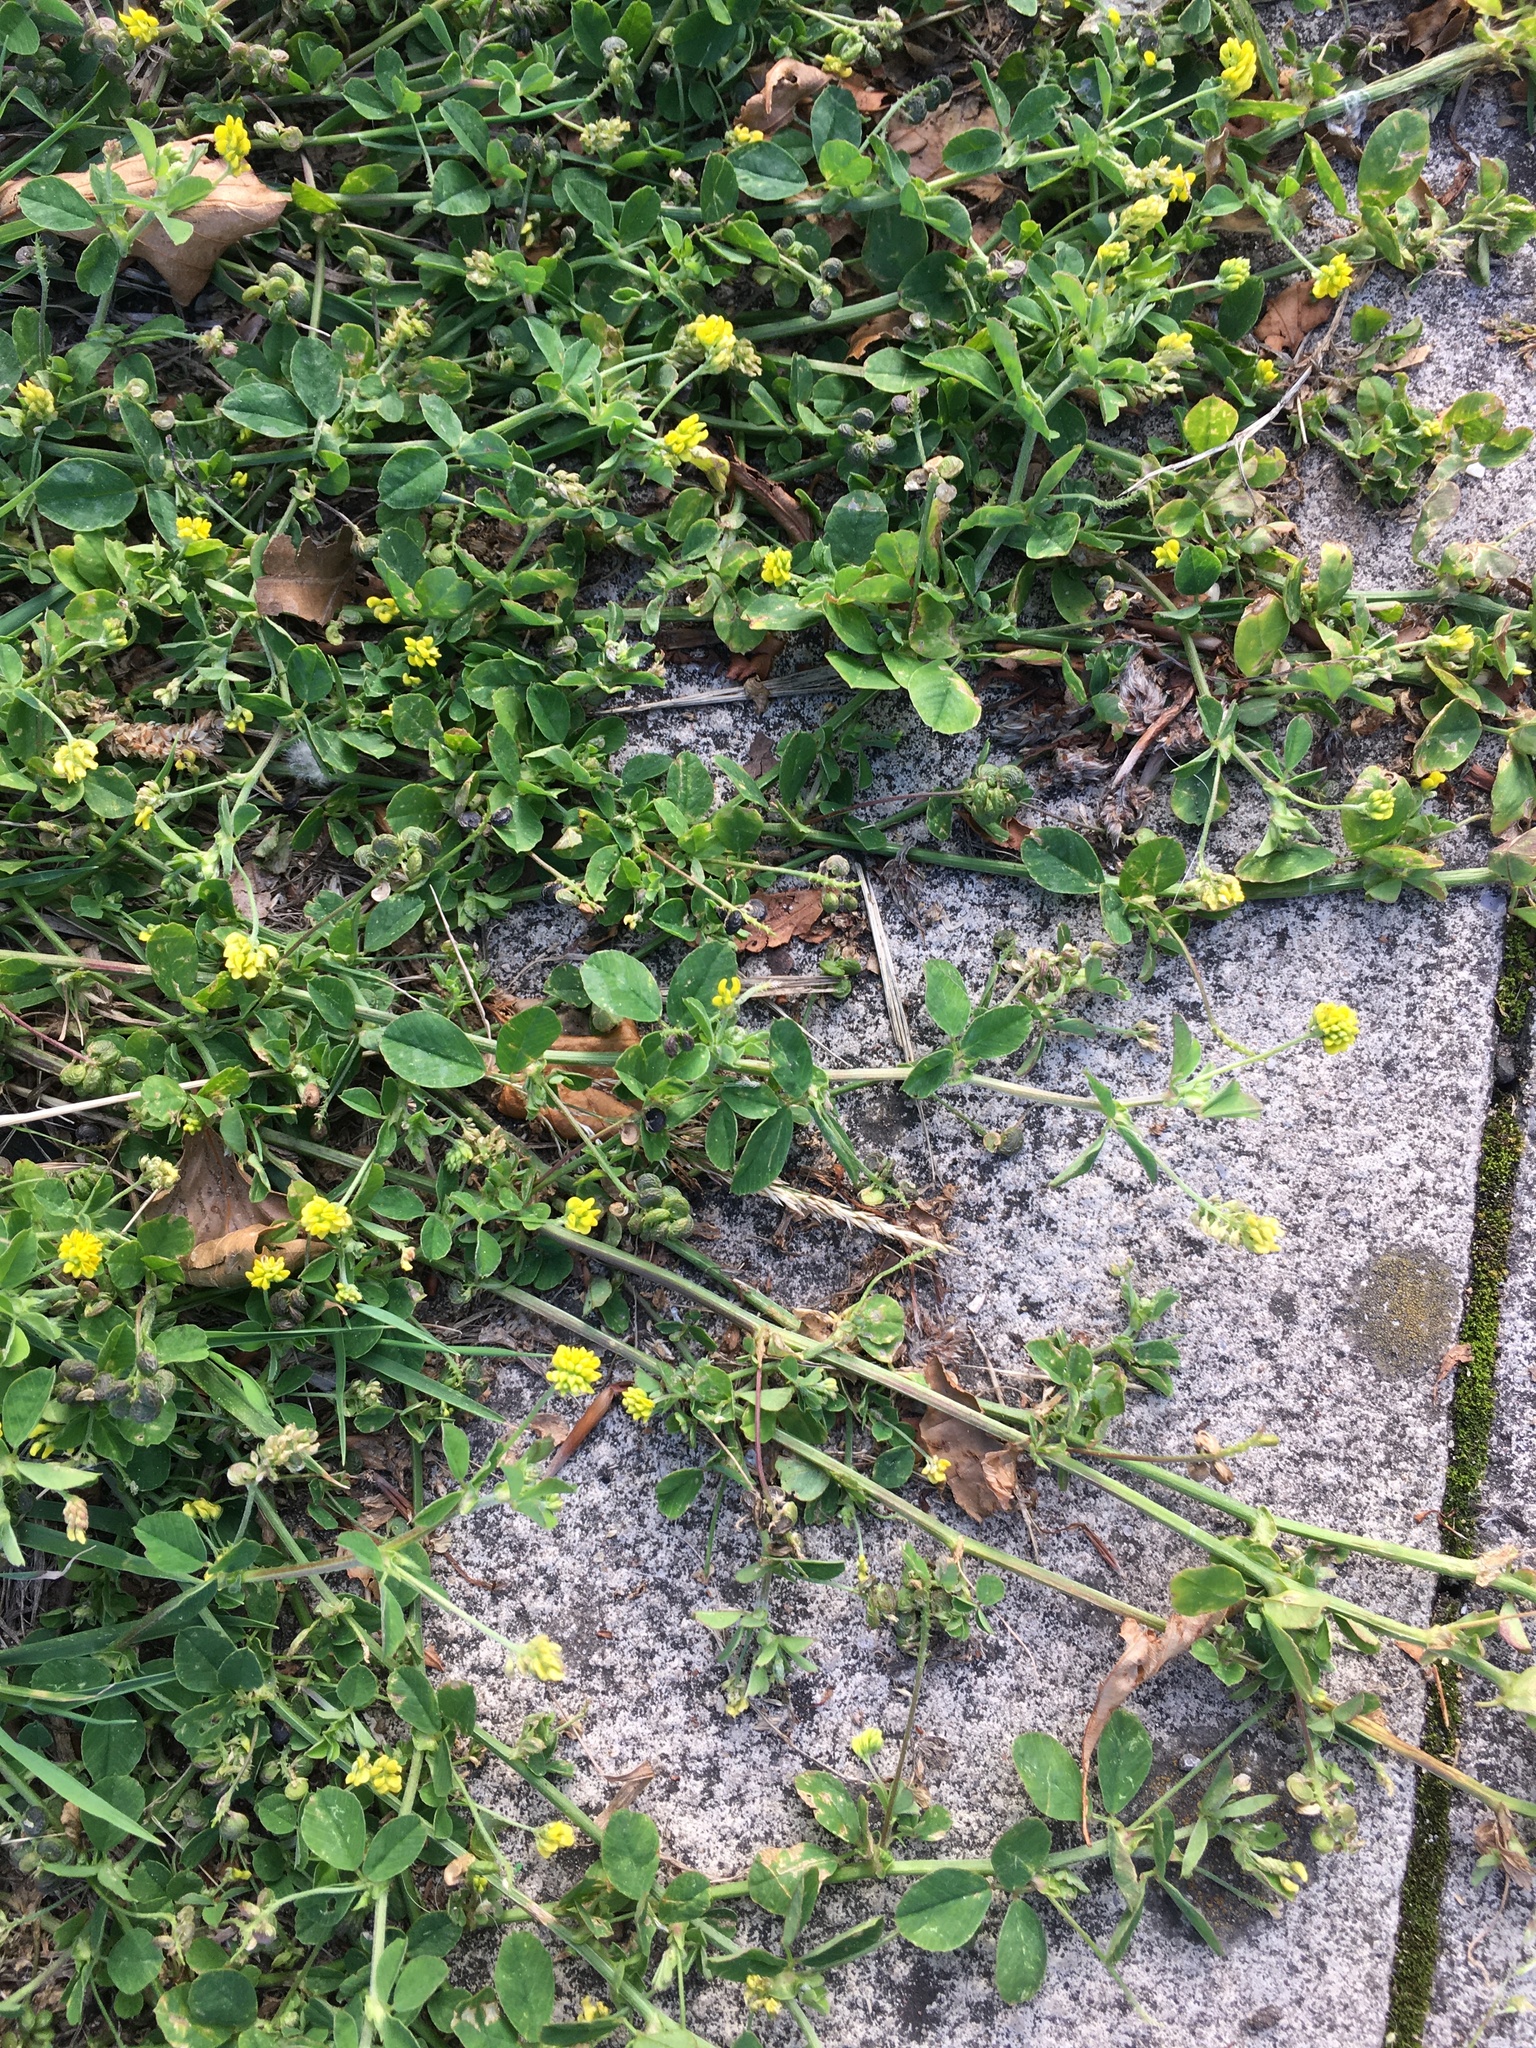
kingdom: Plantae
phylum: Tracheophyta
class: Magnoliopsida
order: Fabales
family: Fabaceae
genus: Medicago
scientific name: Medicago lupulina
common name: Black medick
